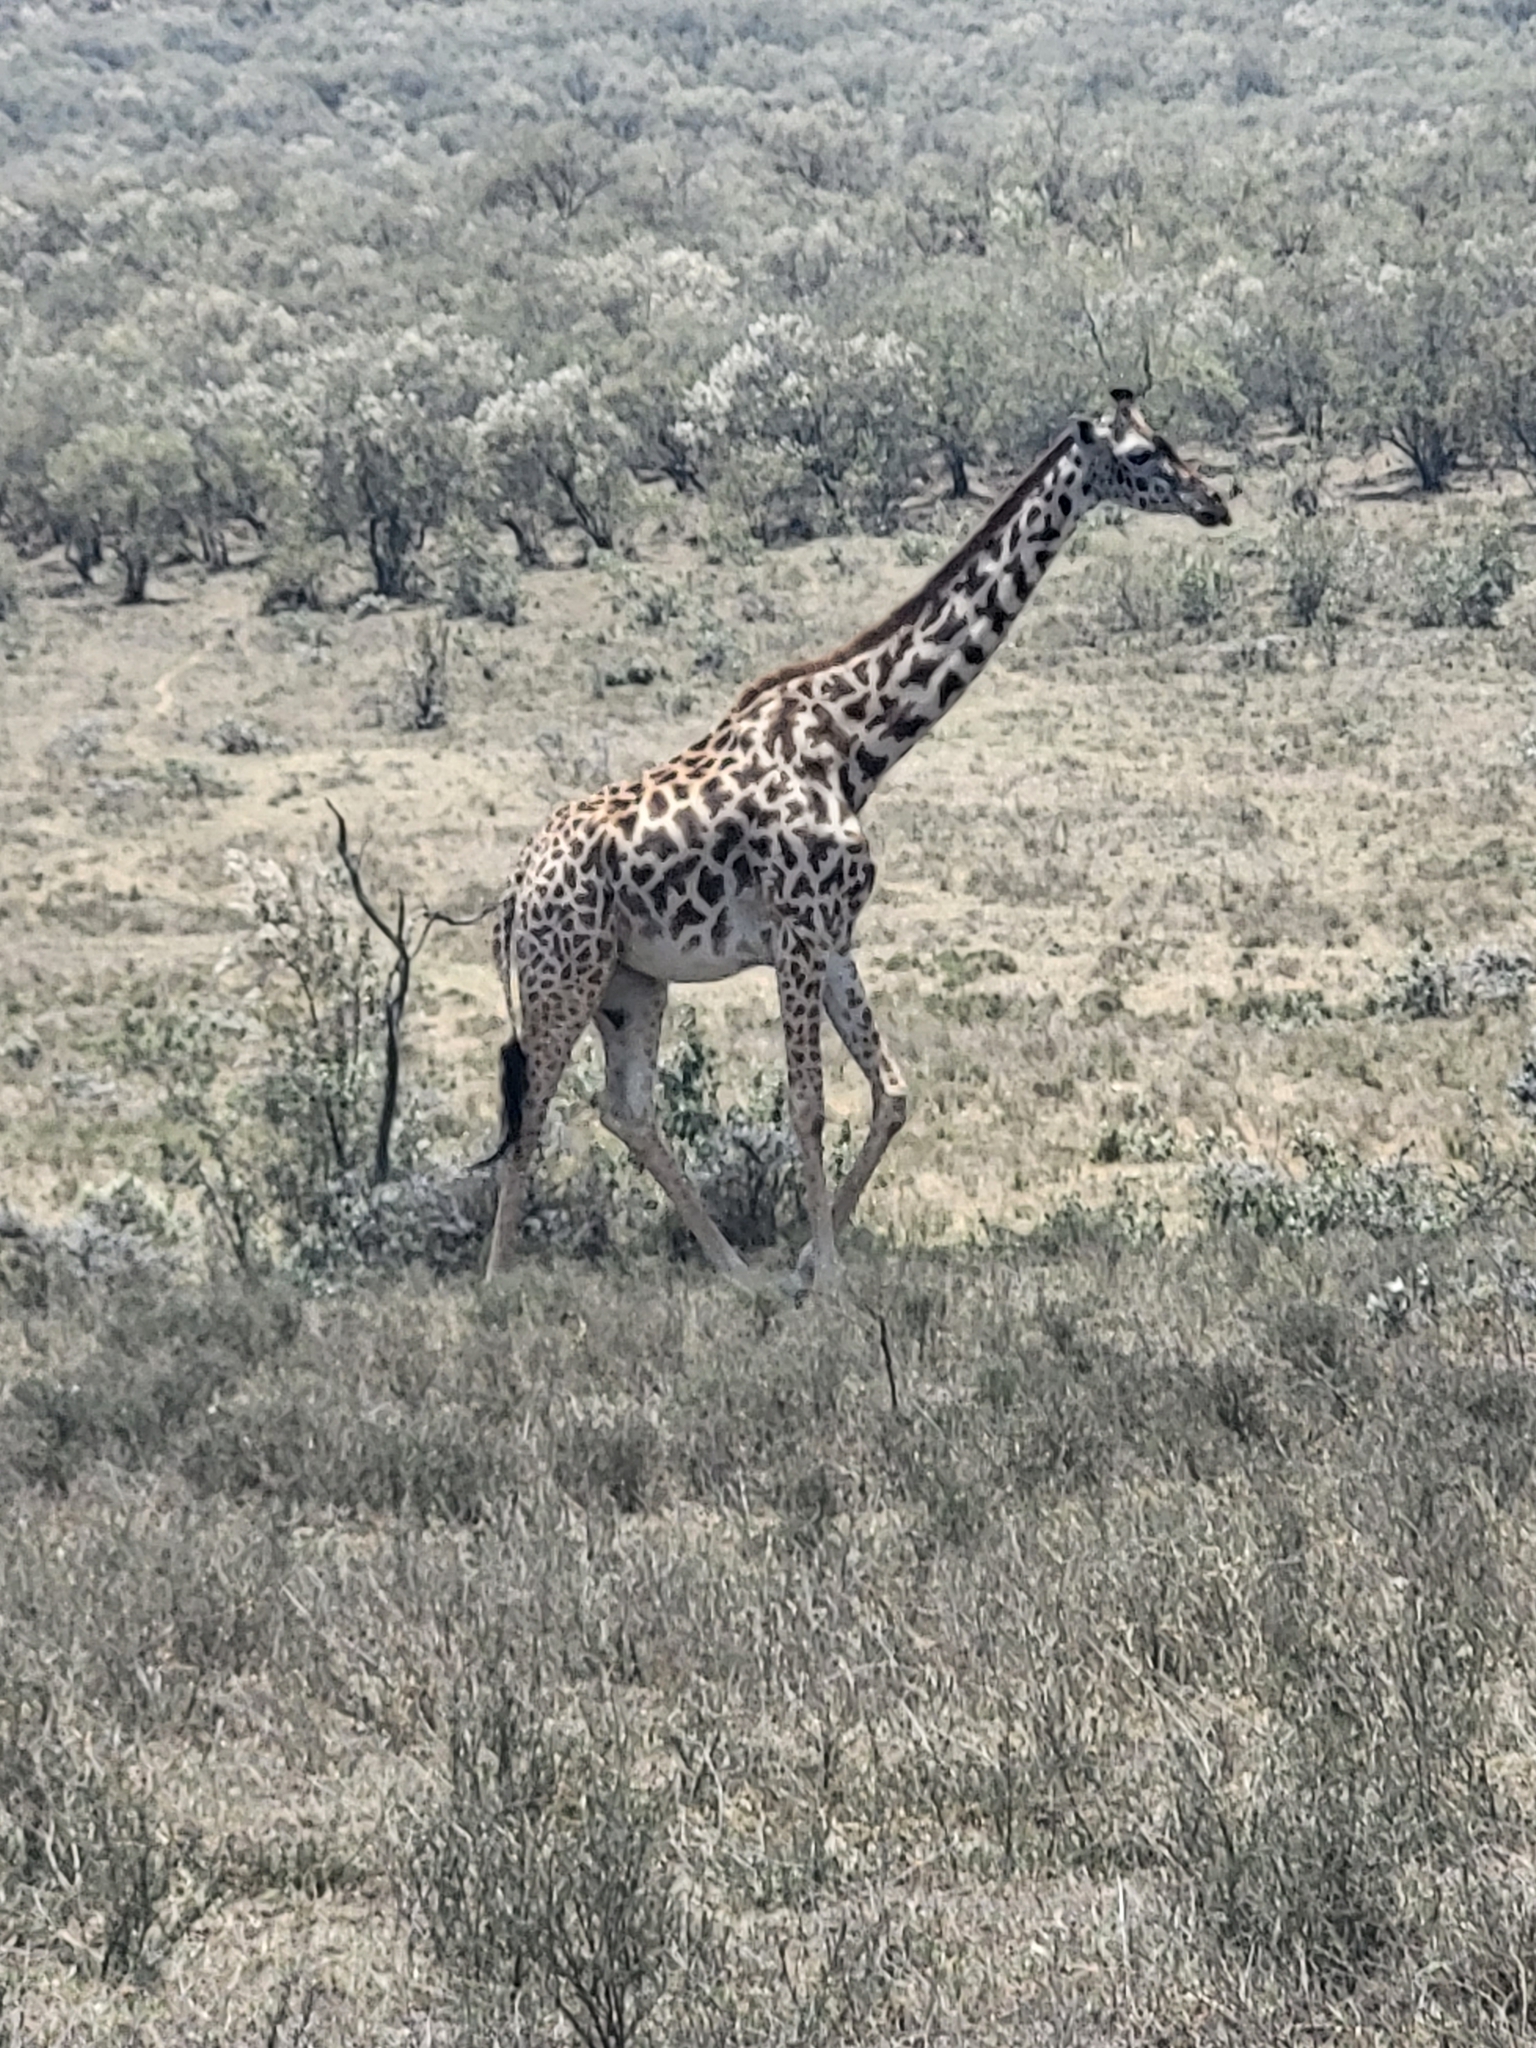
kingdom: Animalia
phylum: Chordata
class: Mammalia
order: Artiodactyla
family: Giraffidae
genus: Giraffa
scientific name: Giraffa tippelskirchi
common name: Masai giraffe
